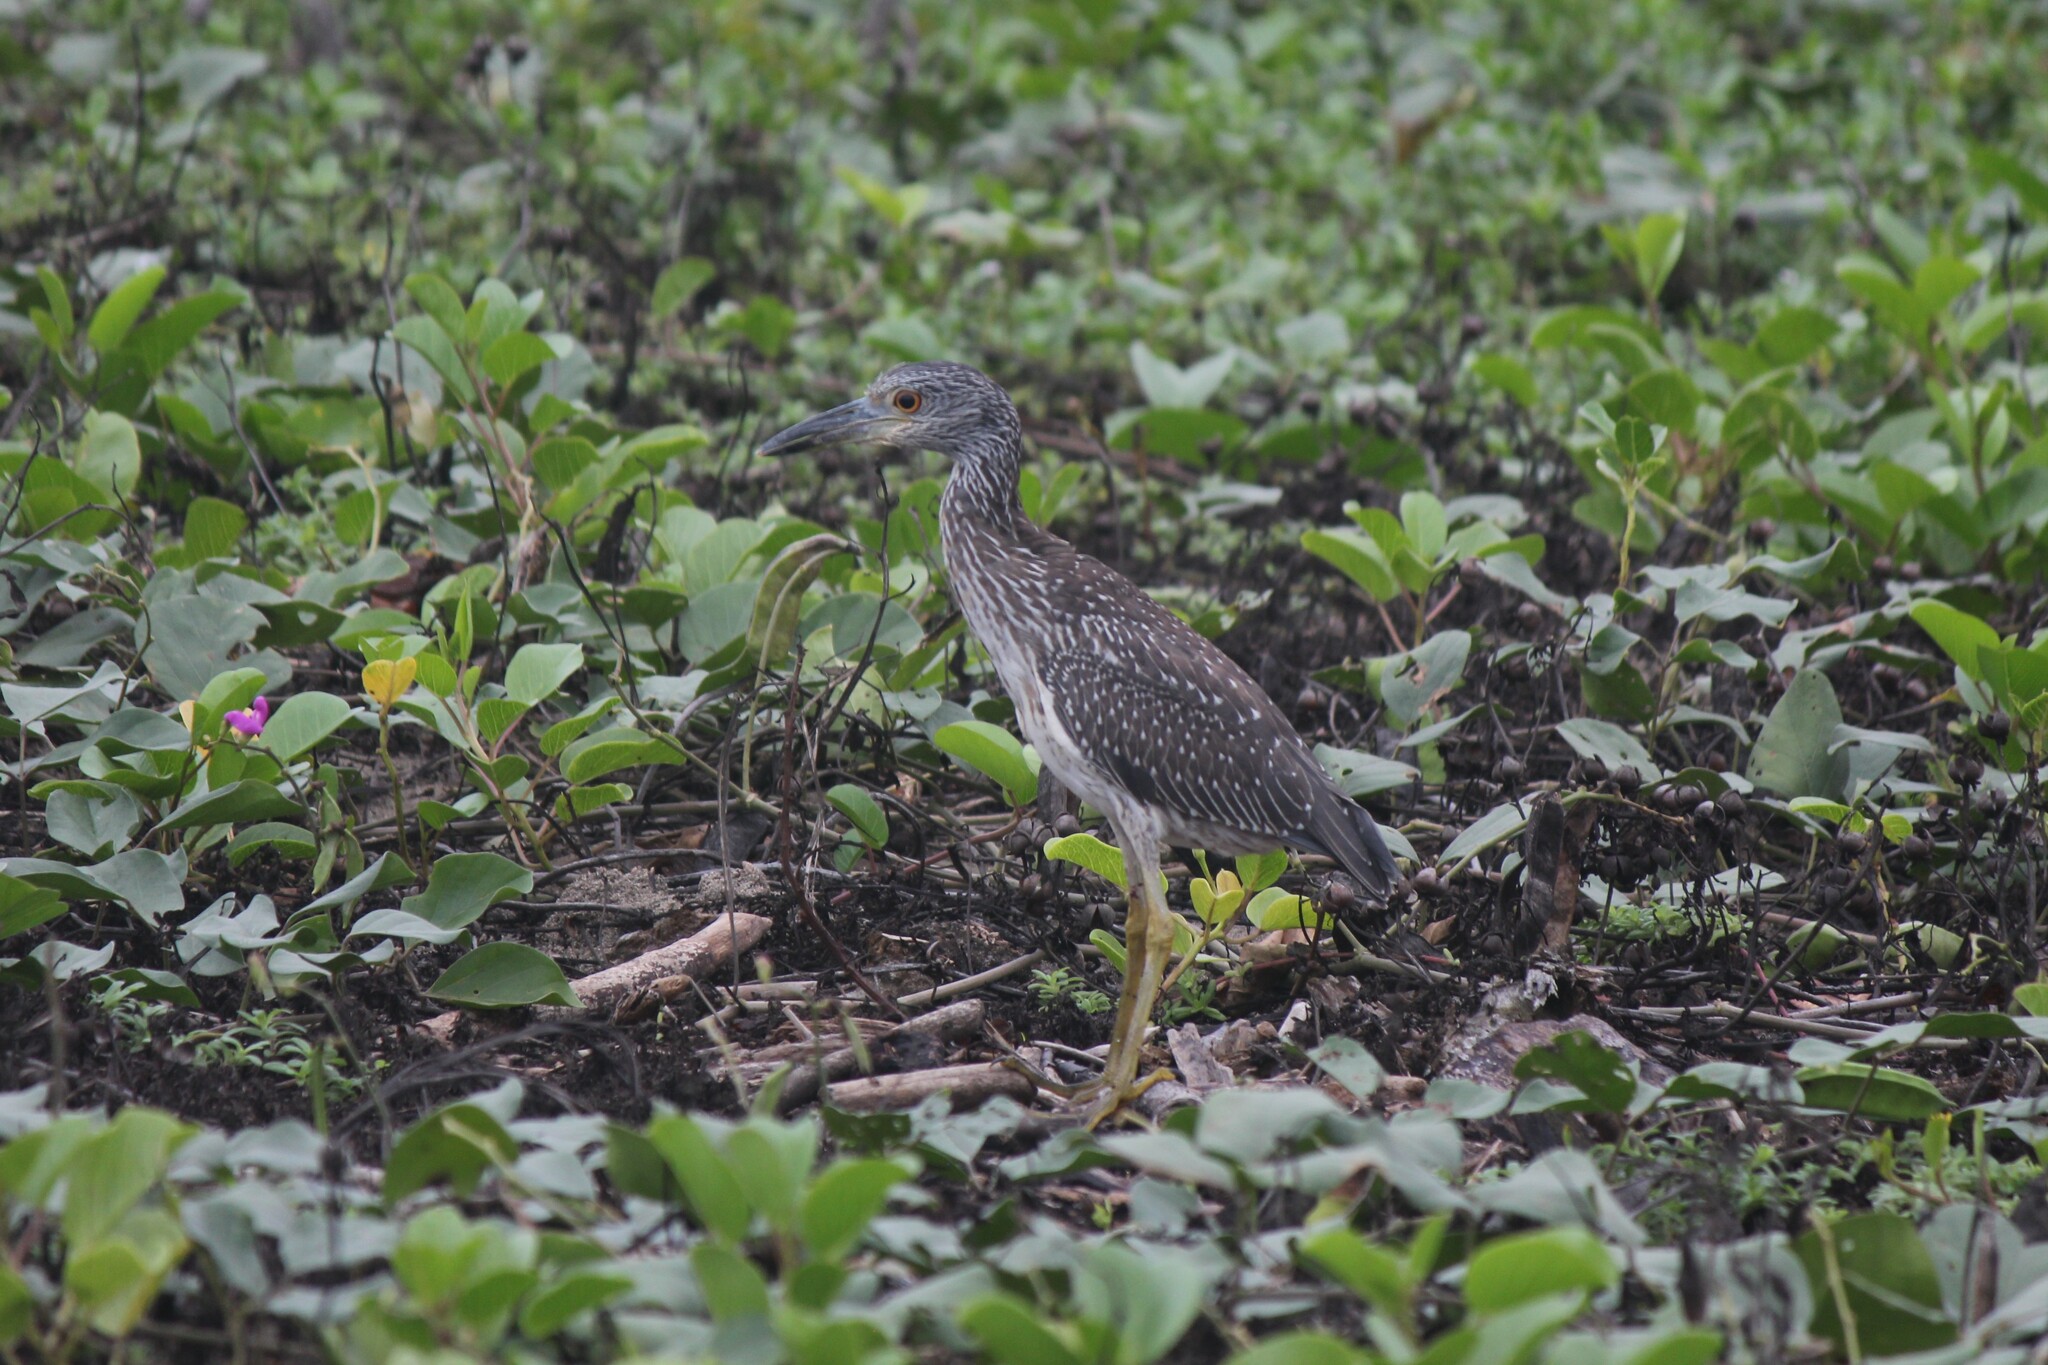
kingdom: Animalia
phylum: Chordata
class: Aves
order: Pelecaniformes
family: Ardeidae
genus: Nyctanassa
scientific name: Nyctanassa violacea
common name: Yellow-crowned night heron
